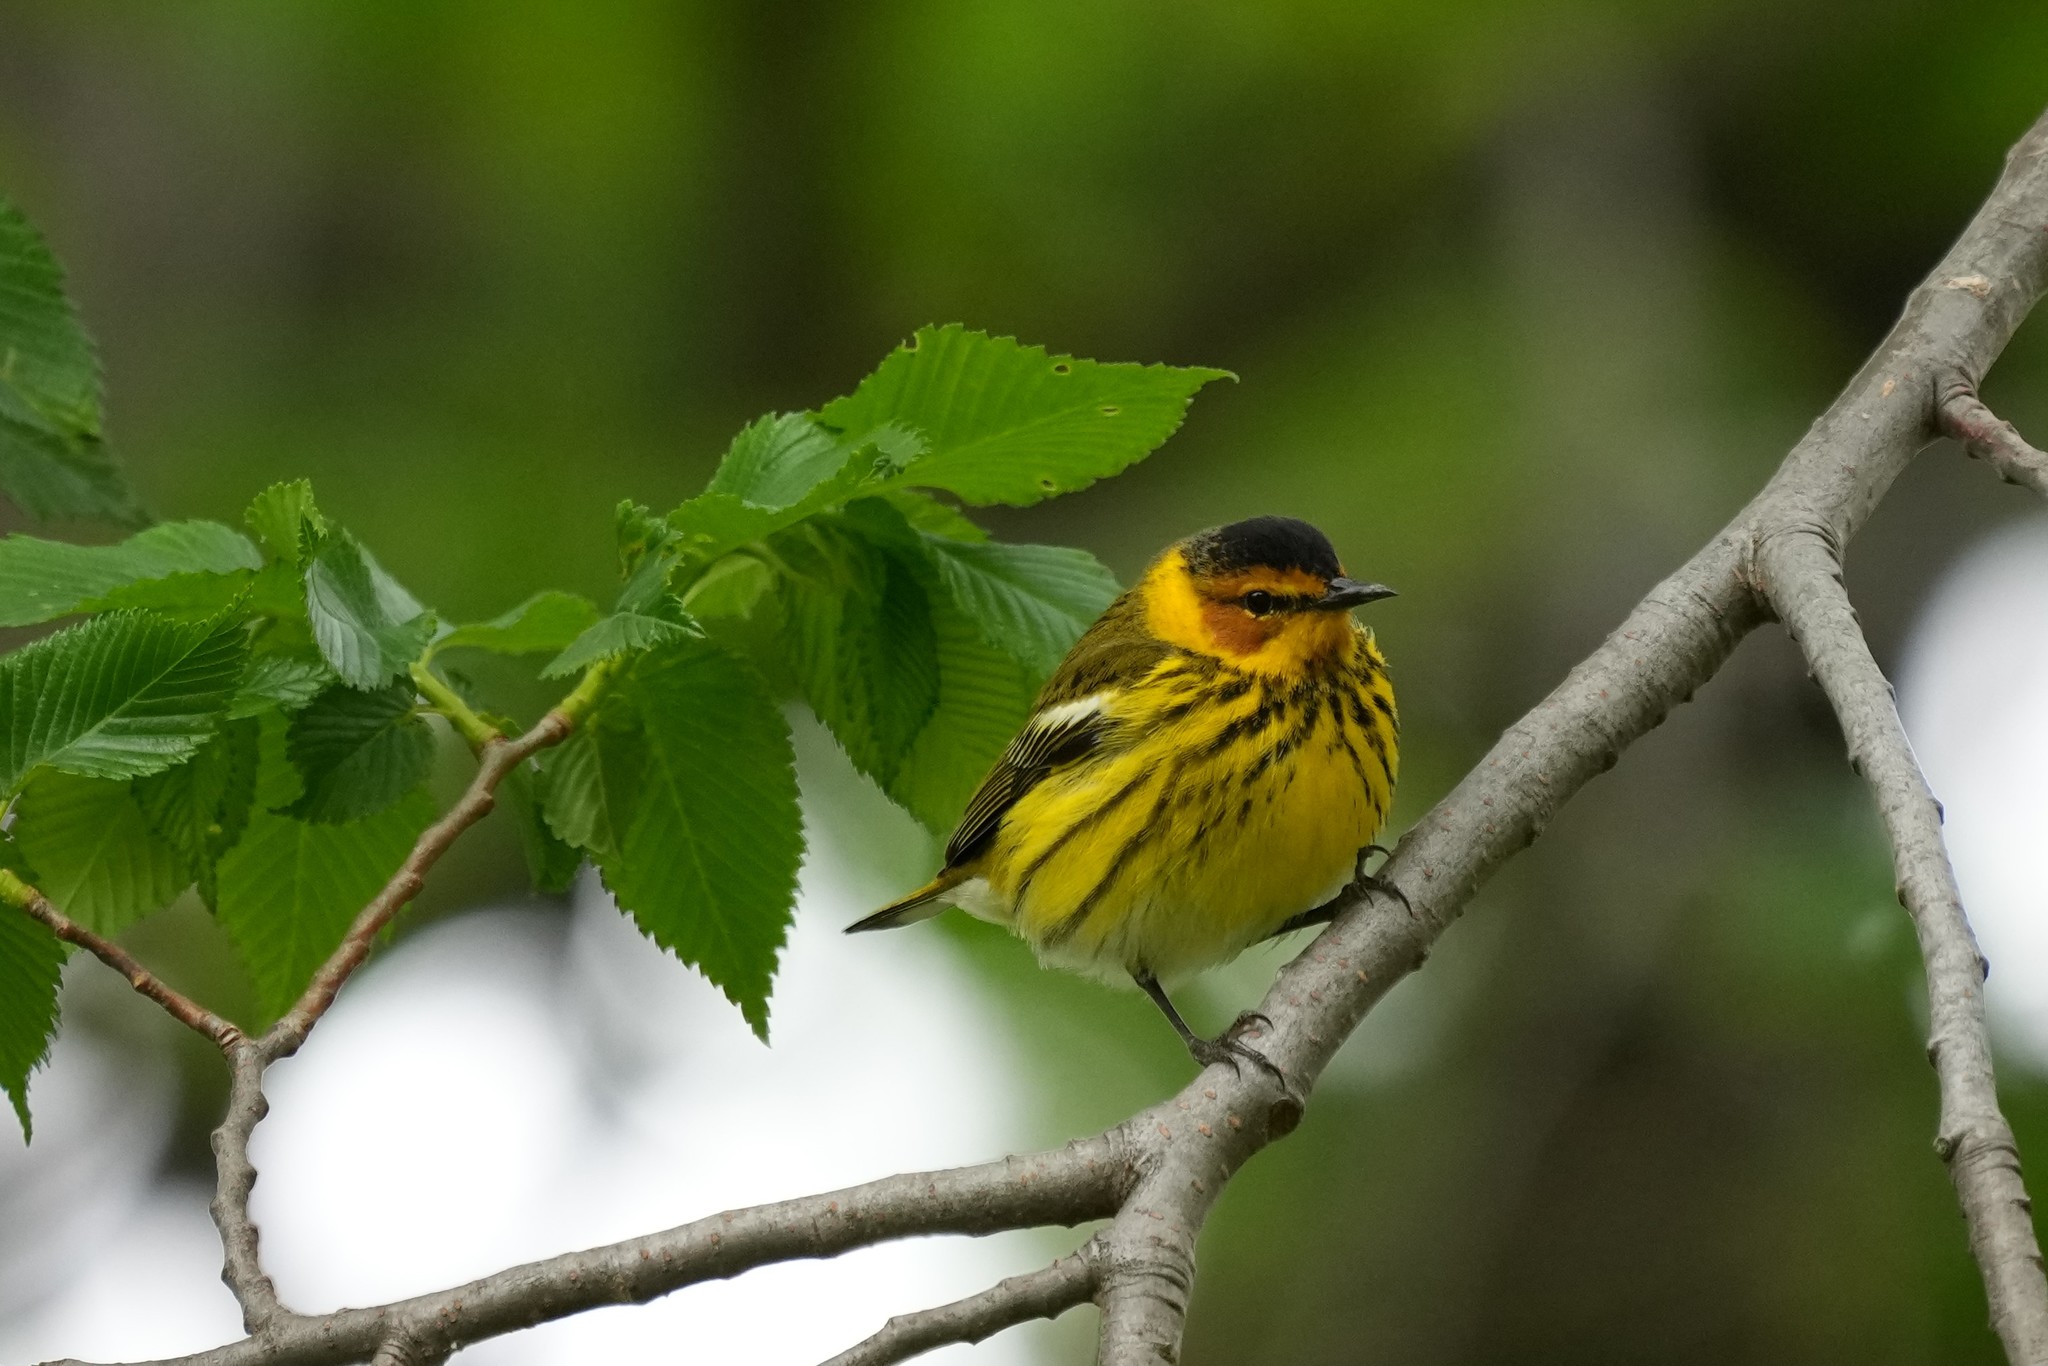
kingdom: Animalia
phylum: Chordata
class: Aves
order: Passeriformes
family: Parulidae
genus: Setophaga
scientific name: Setophaga tigrina
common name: Cape may warbler
